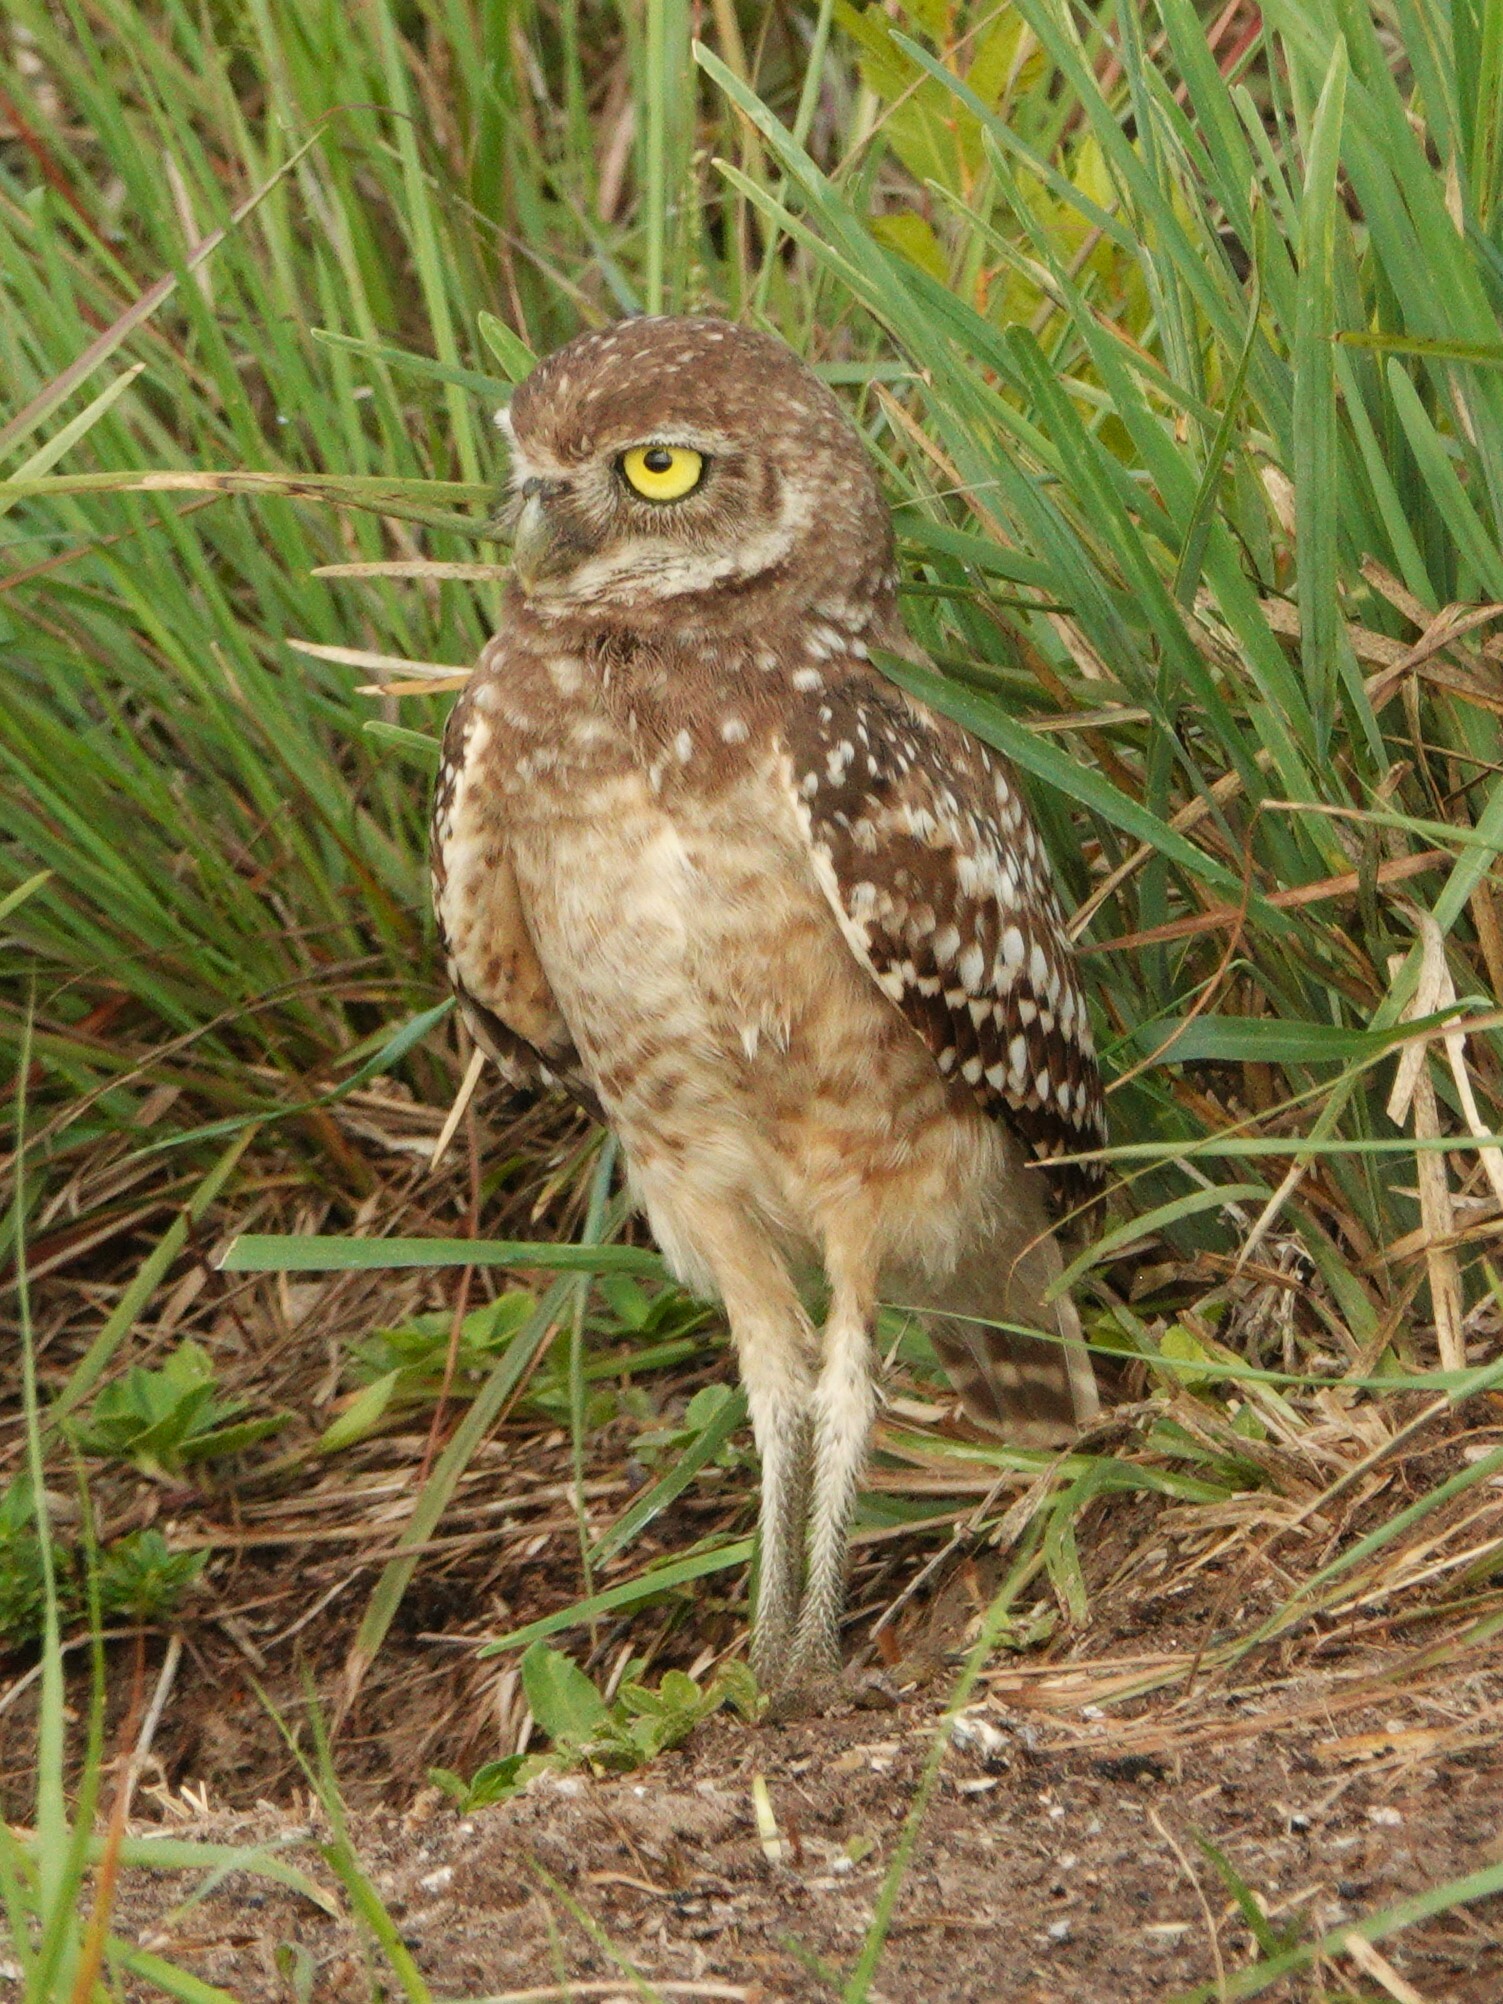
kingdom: Animalia
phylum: Chordata
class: Aves
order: Strigiformes
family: Strigidae
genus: Athene
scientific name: Athene cunicularia
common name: Burrowing owl
